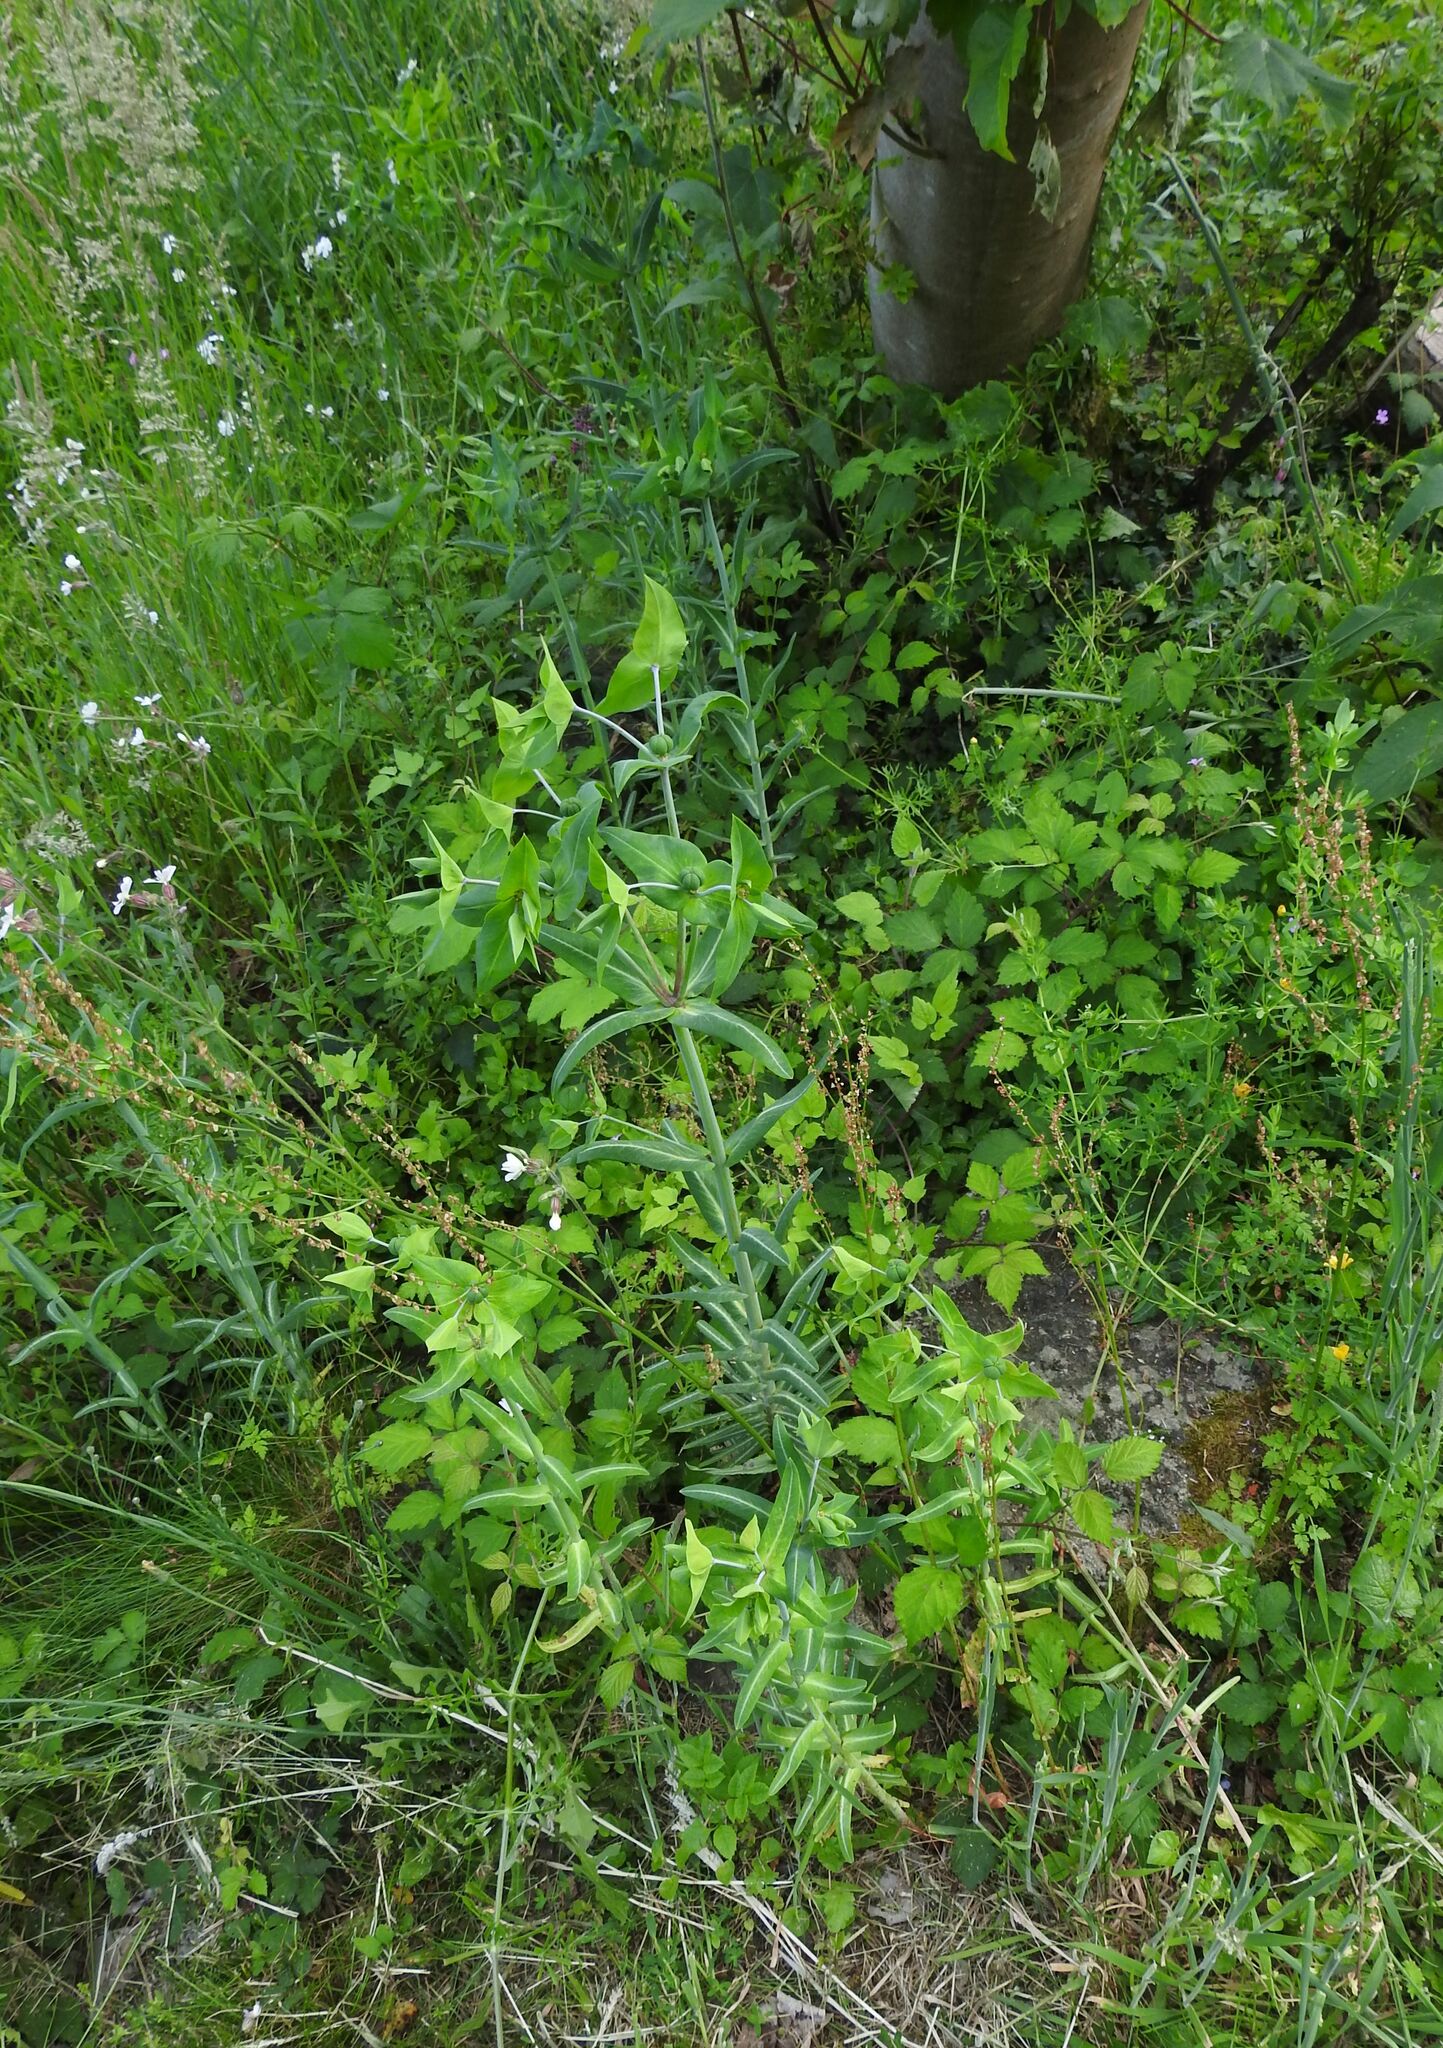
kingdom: Plantae
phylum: Tracheophyta
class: Magnoliopsida
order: Malpighiales
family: Euphorbiaceae
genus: Euphorbia
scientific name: Euphorbia lathyris
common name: Caper spurge
